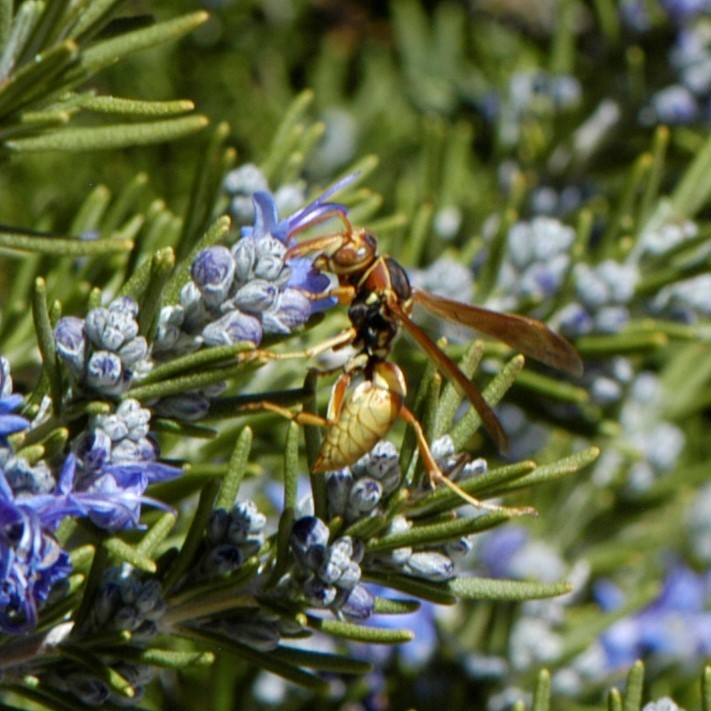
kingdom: Animalia
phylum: Arthropoda
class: Insecta
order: Hymenoptera
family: Eumenidae
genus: Polistes
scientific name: Polistes aurifer
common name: Paper wasp
